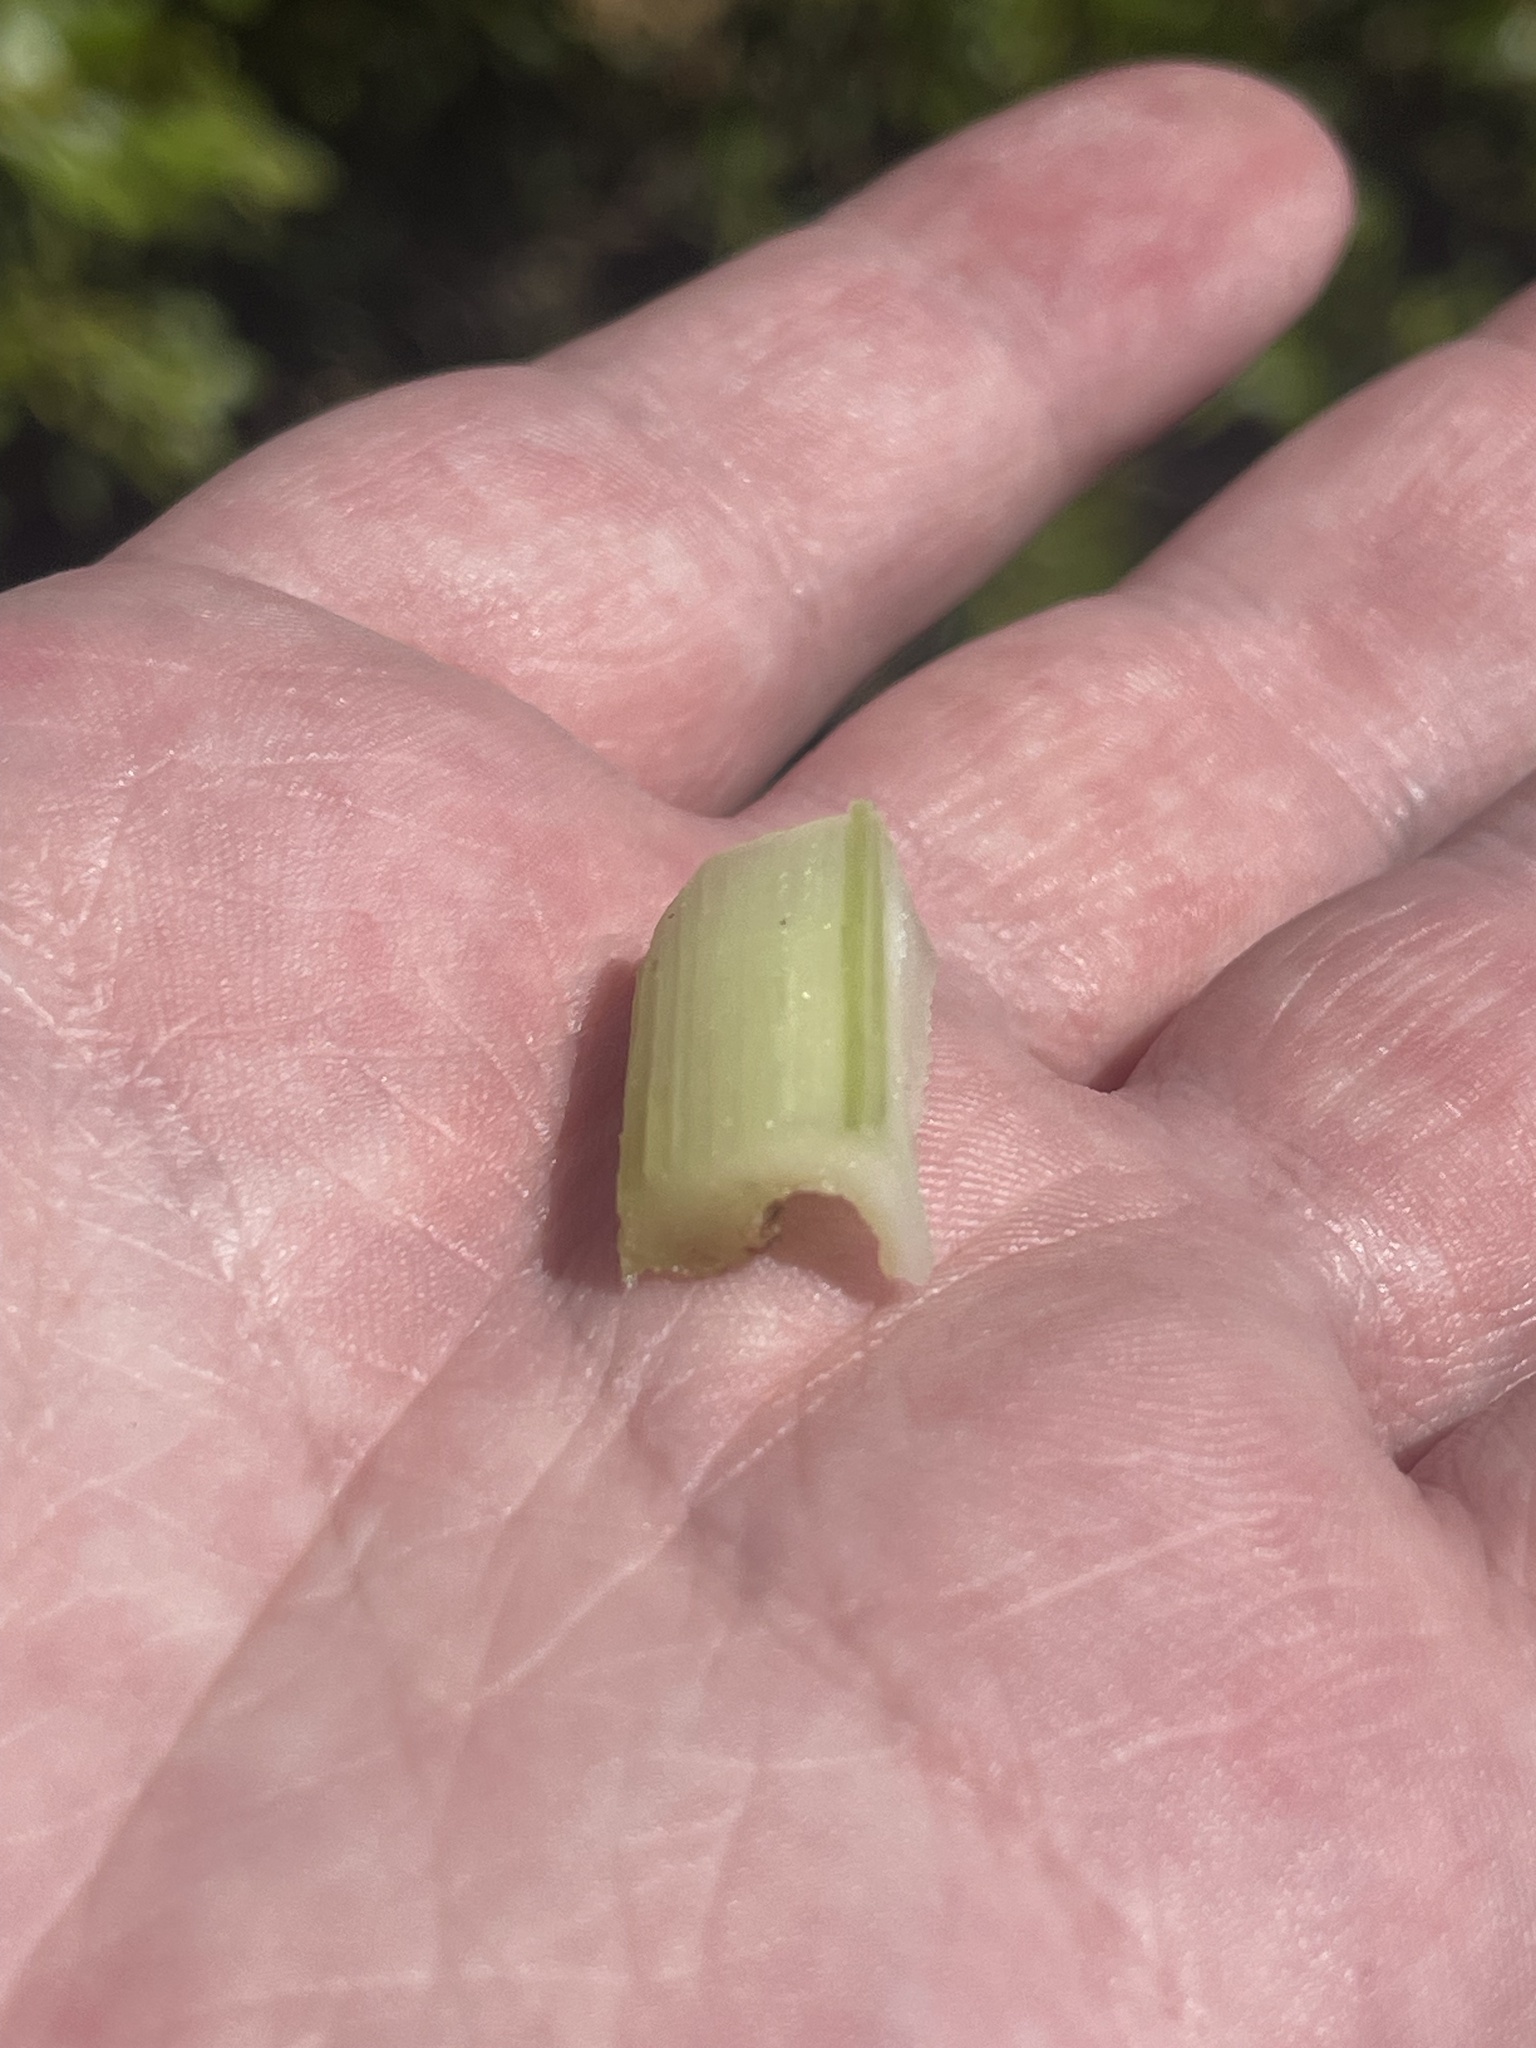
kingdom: Plantae
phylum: Tracheophyta
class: Magnoliopsida
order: Asterales
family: Asteraceae
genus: Cirsium
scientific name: Cirsium horridulum
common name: Bristly thistle
